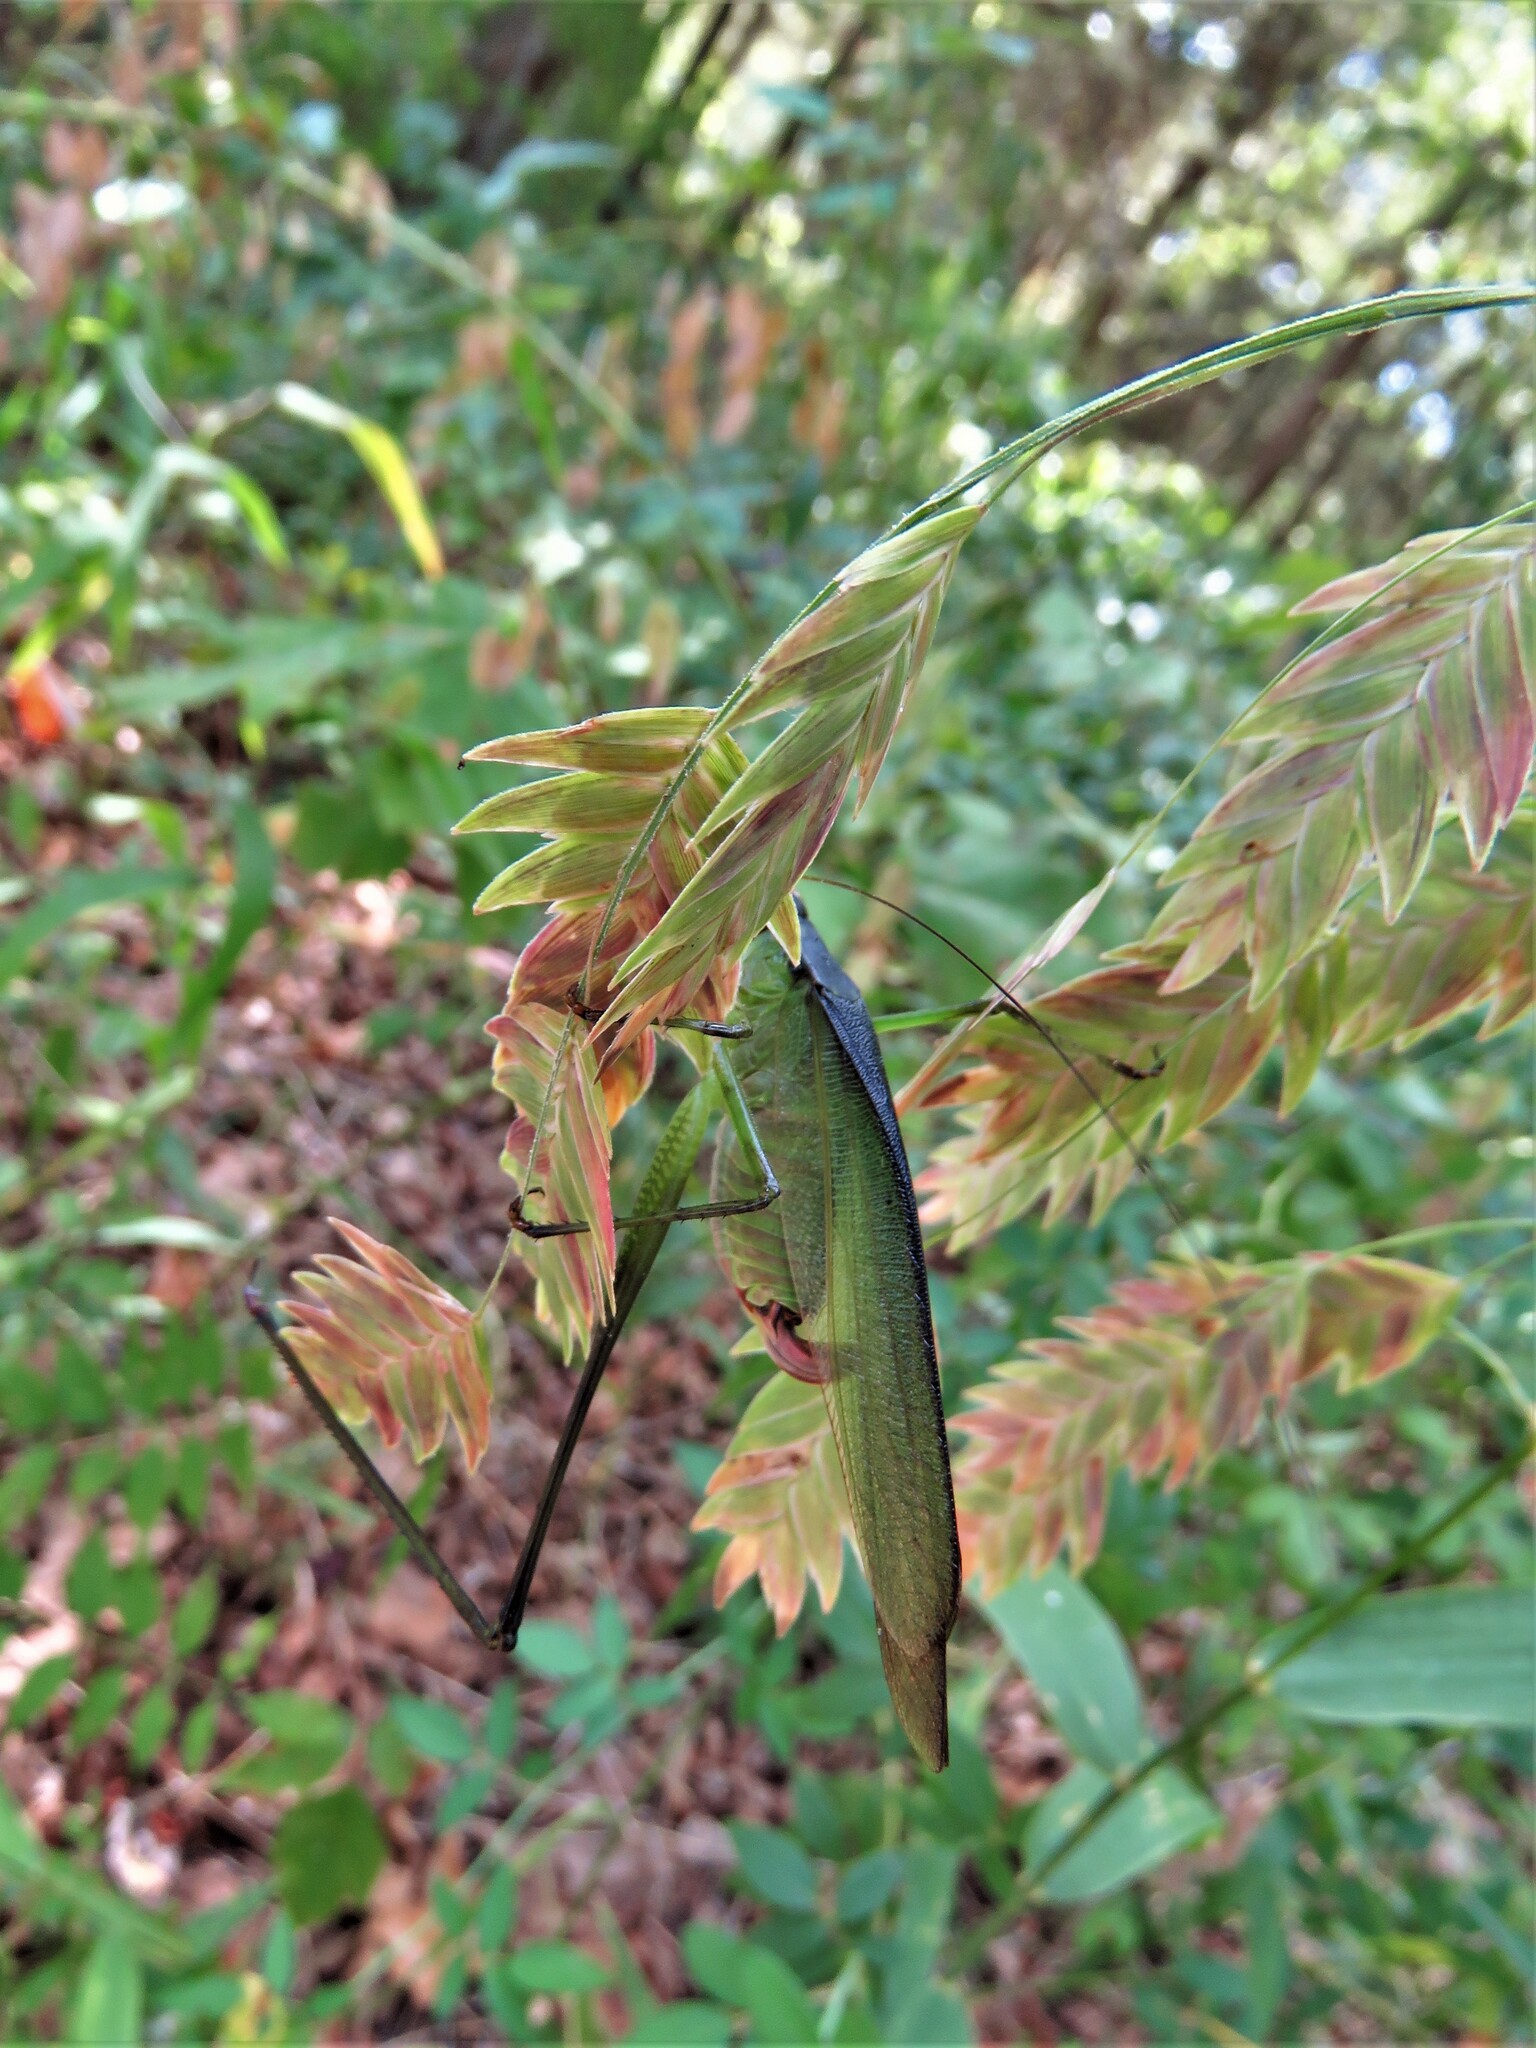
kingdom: Plantae
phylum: Tracheophyta
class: Liliopsida
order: Poales
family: Poaceae
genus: Chasmanthium
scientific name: Chasmanthium latifolium
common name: Broad-leaved chasmanthium
